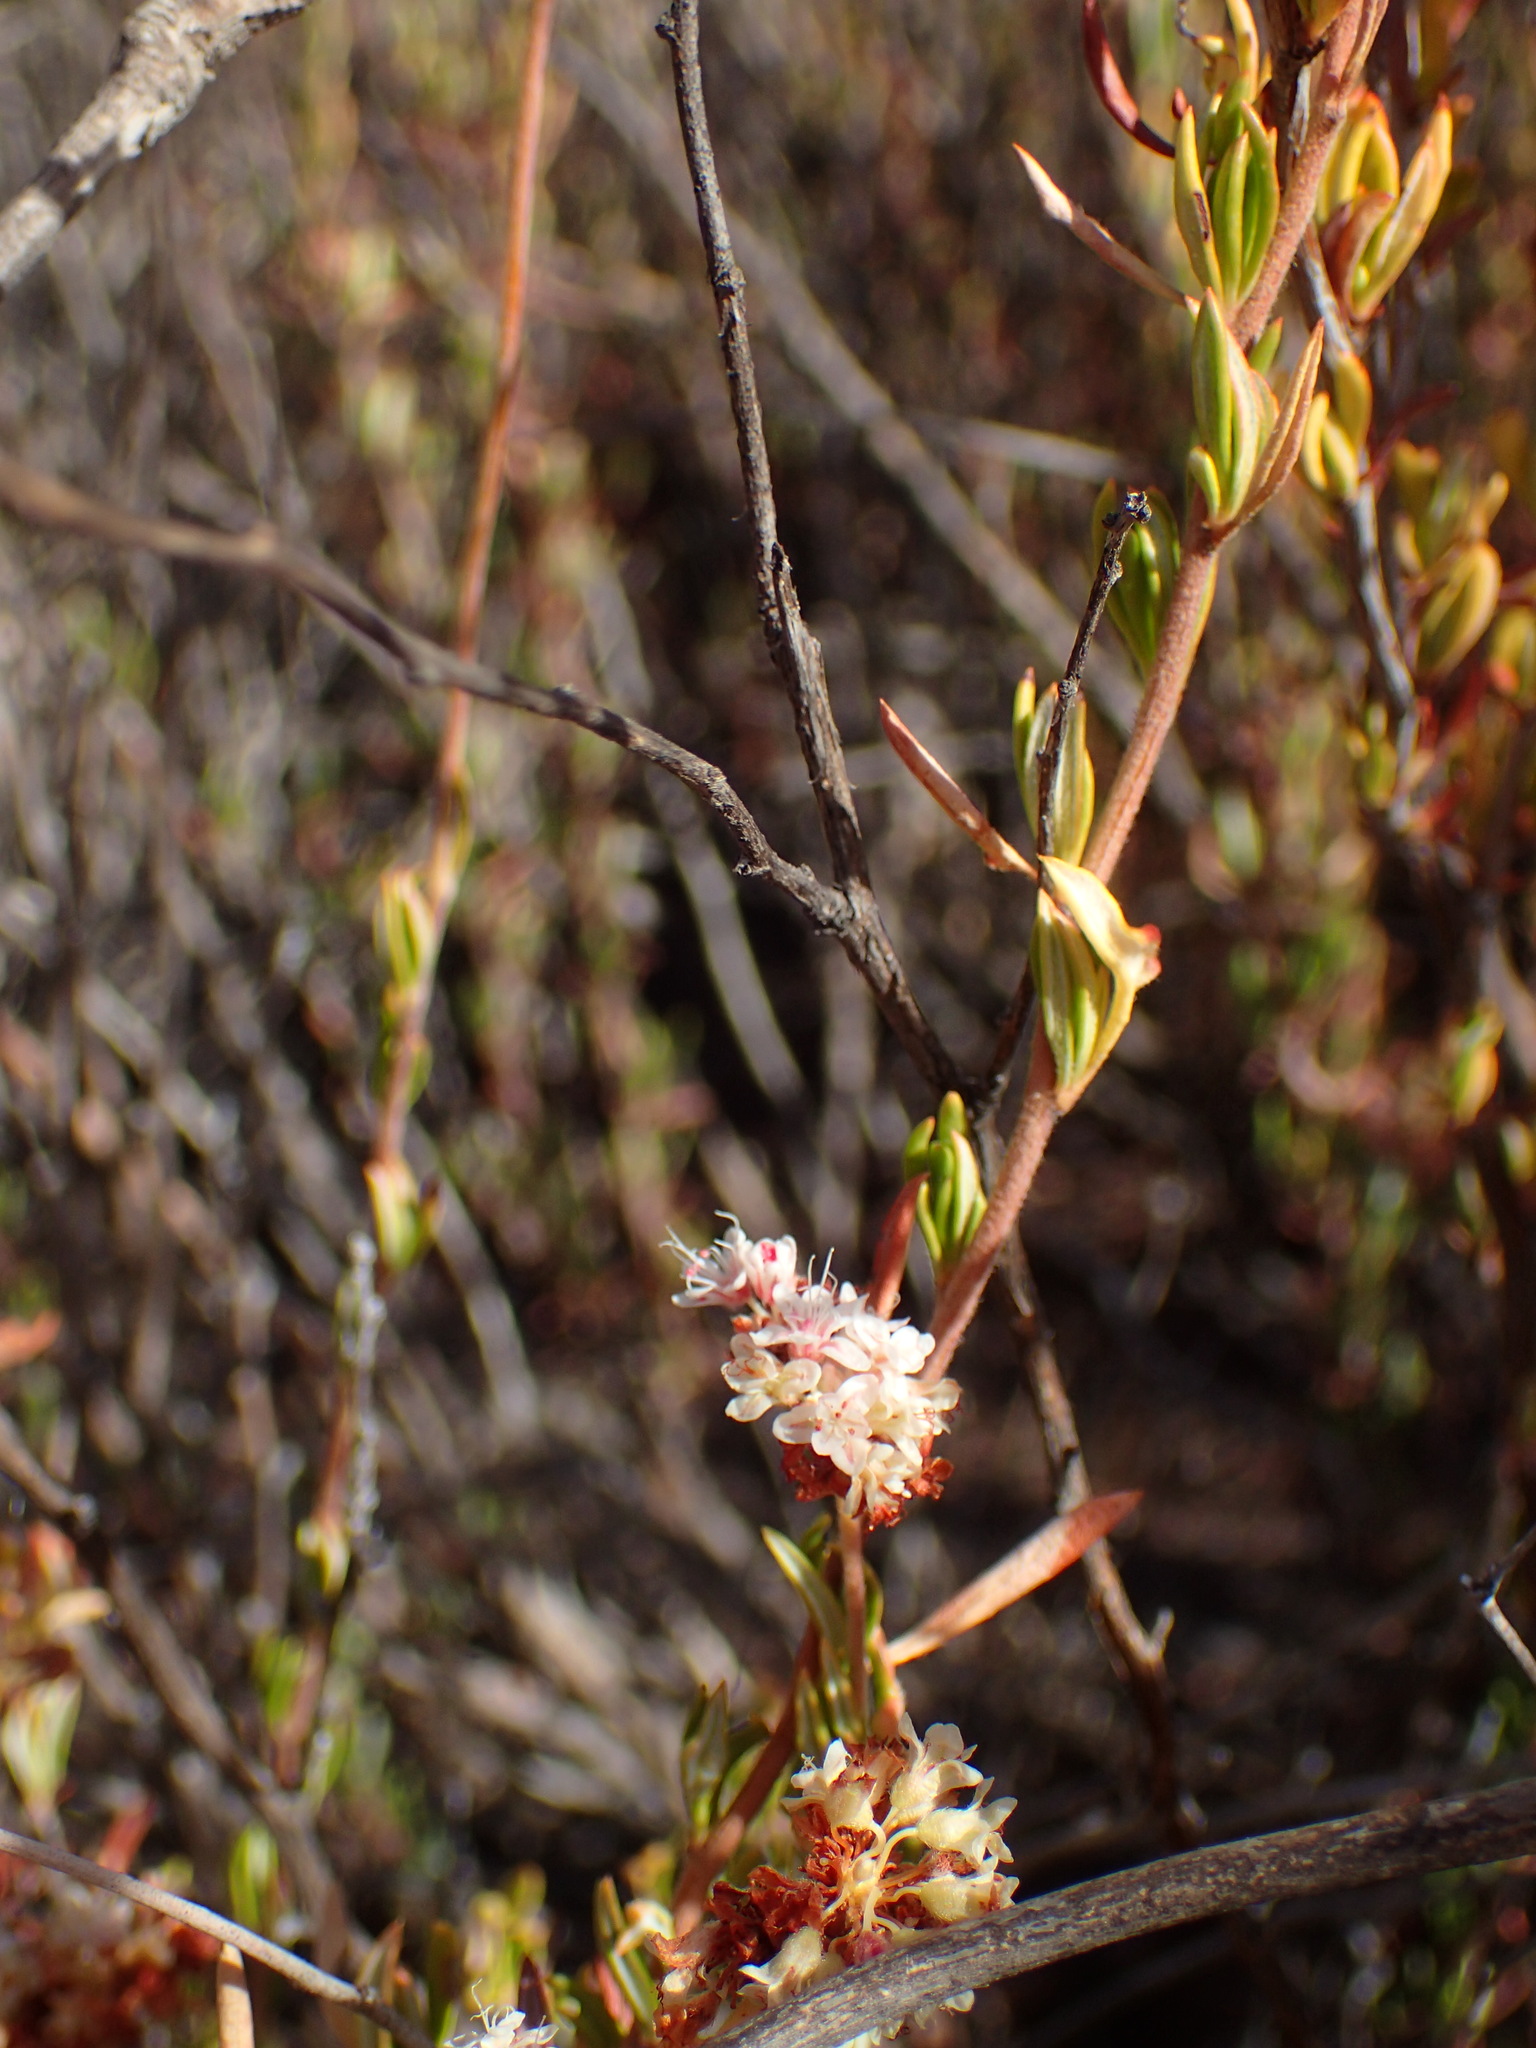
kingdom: Plantae
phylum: Tracheophyta
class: Magnoliopsida
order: Caryophyllales
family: Polygonaceae
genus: Eriogonum
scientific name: Eriogonum fasciculatum
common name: California wild buckwheat
